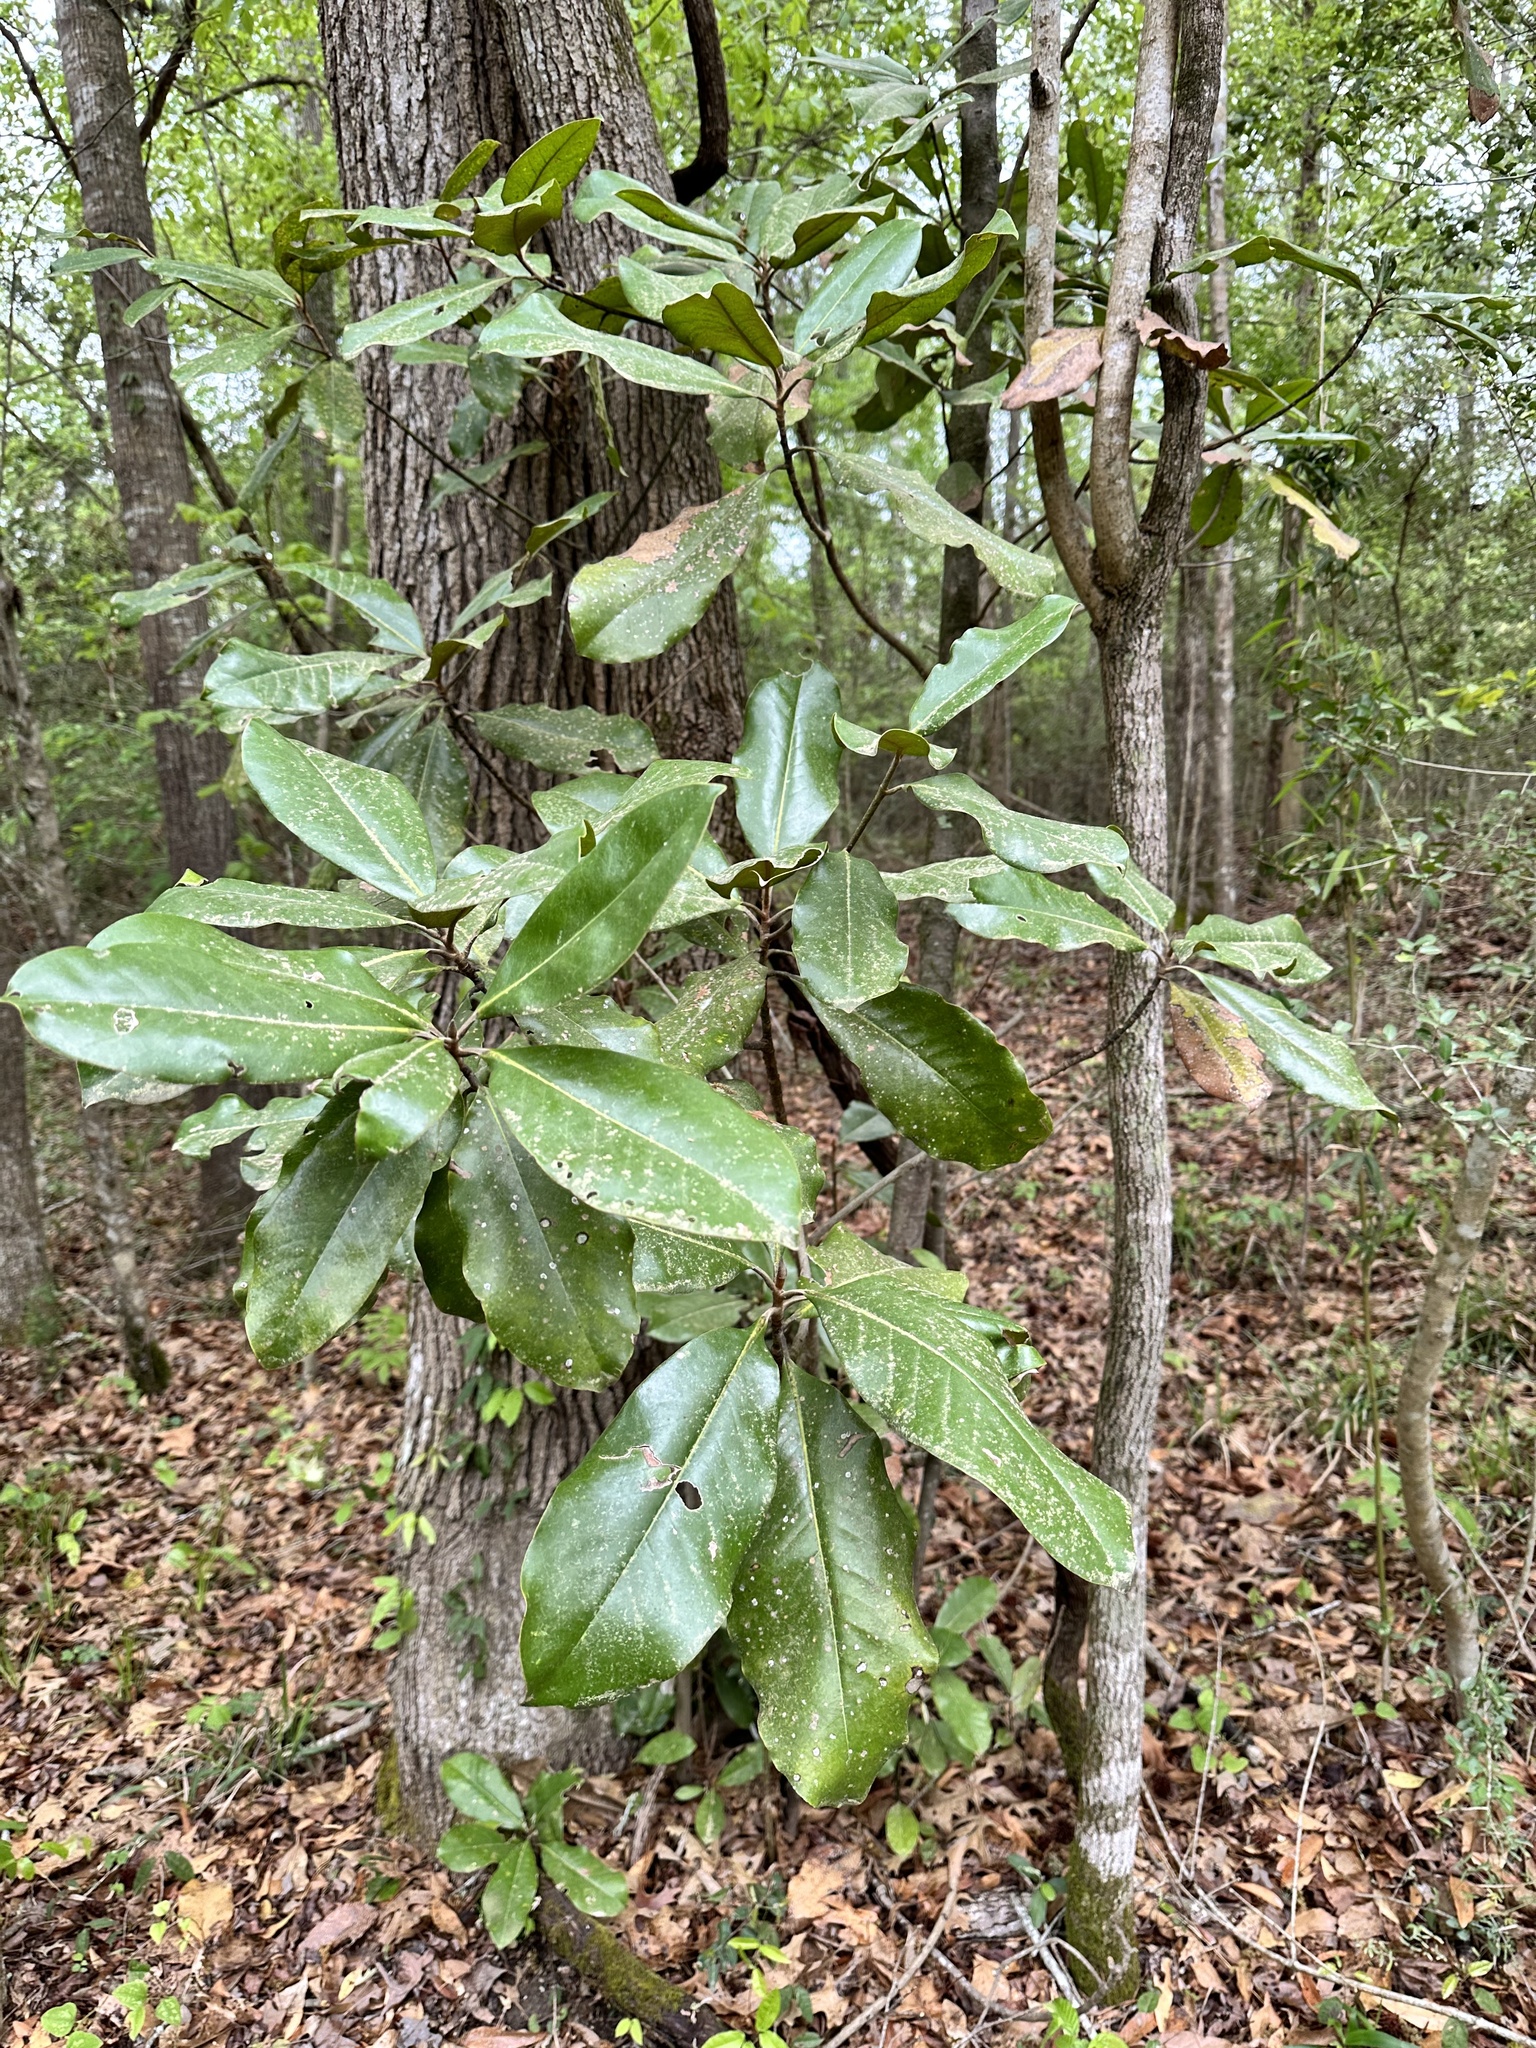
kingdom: Plantae
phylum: Tracheophyta
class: Magnoliopsida
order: Magnoliales
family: Magnoliaceae
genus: Magnolia
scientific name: Magnolia grandiflora
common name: Southern magnolia
